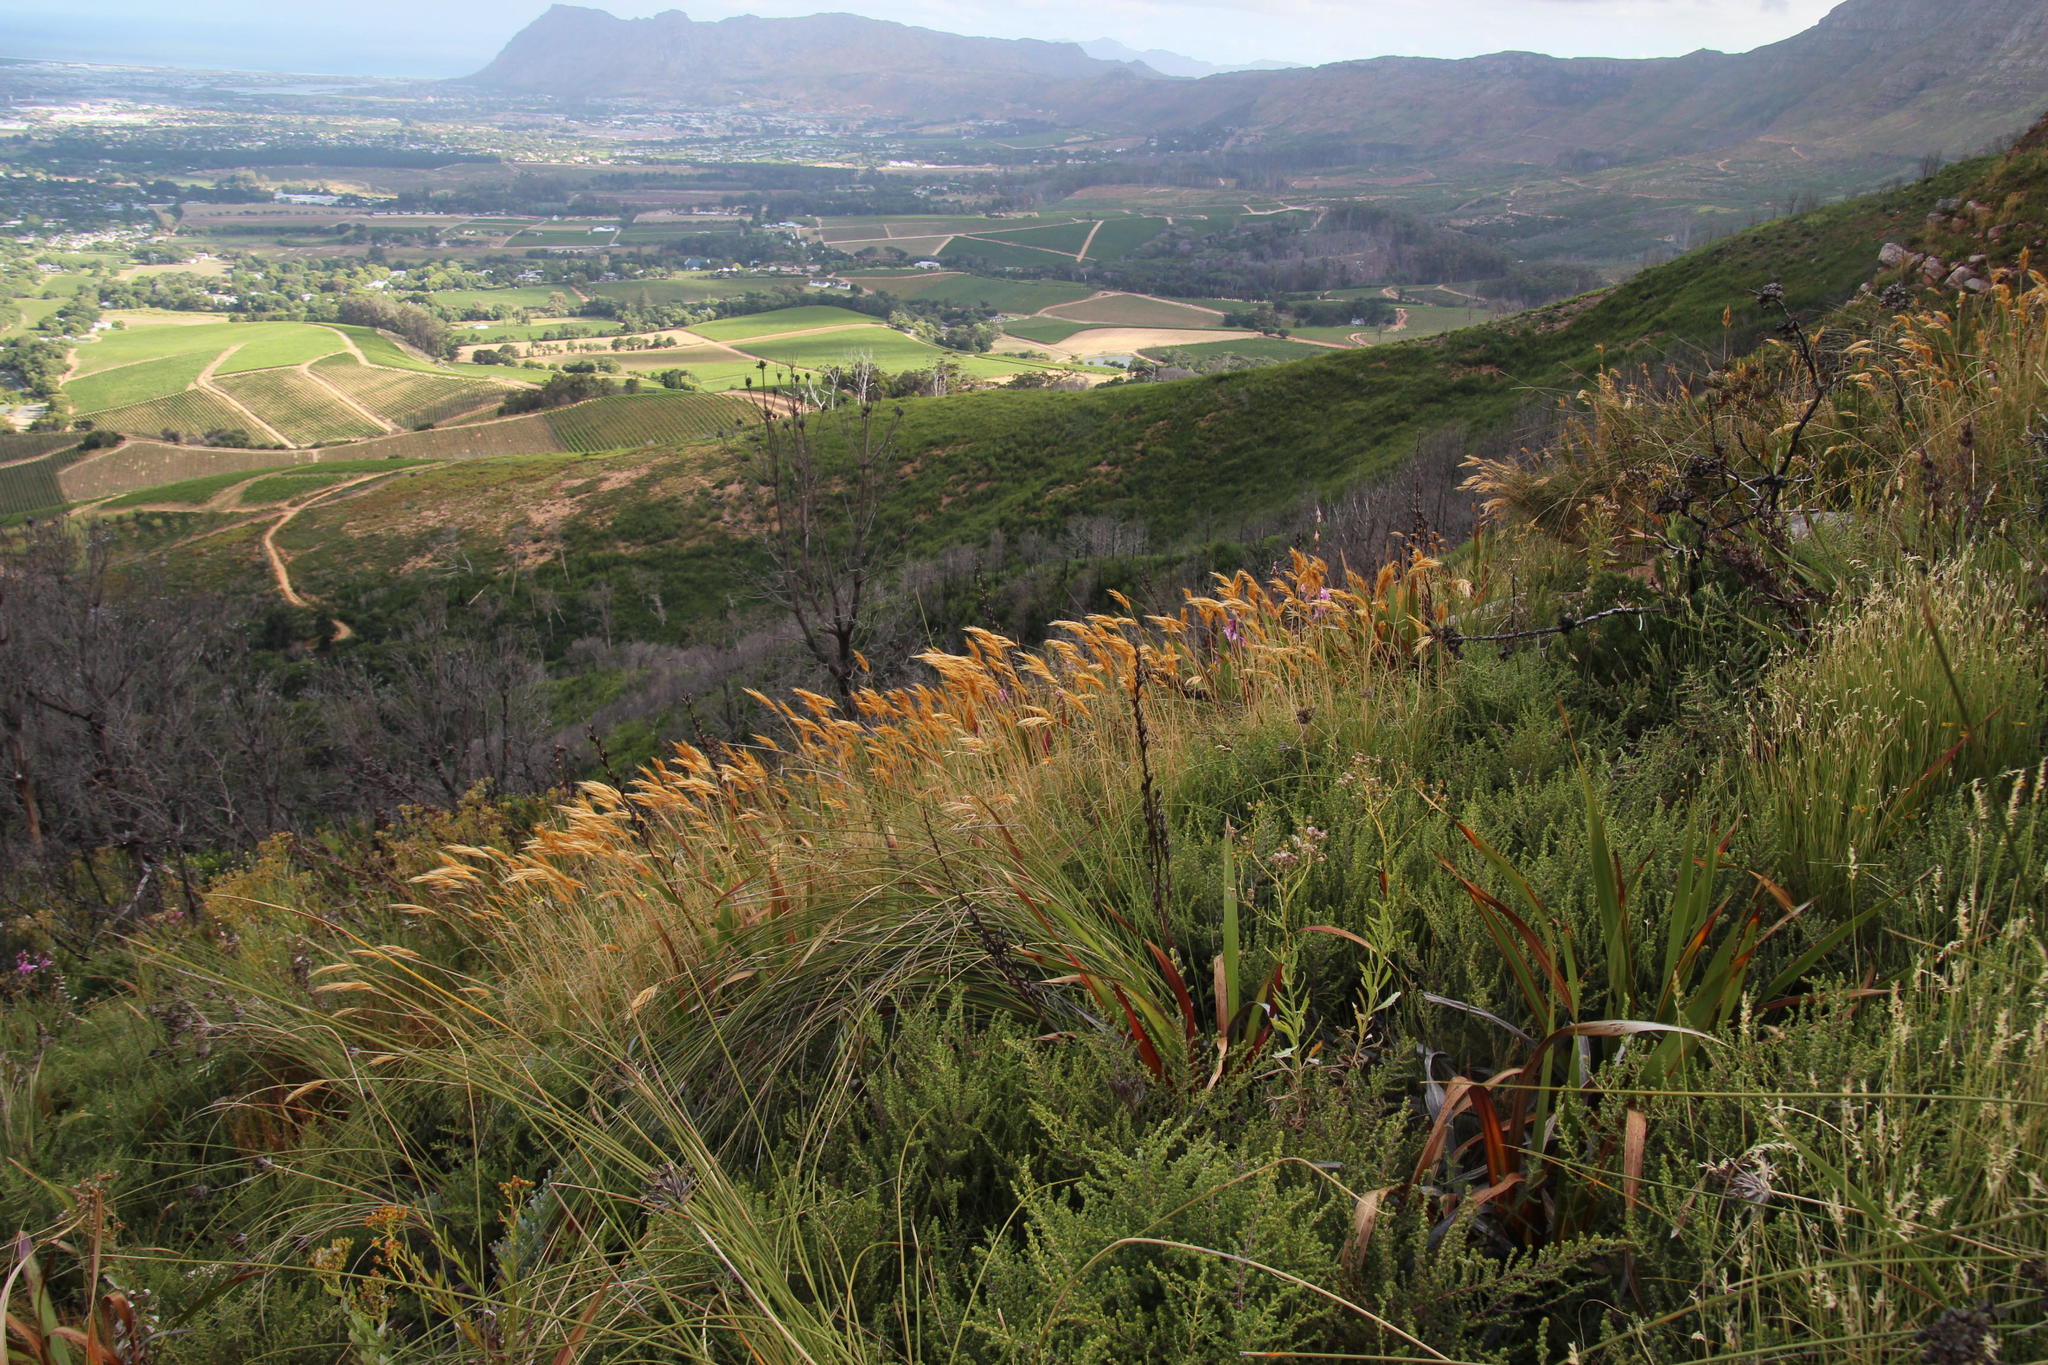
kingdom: Plantae
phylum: Tracheophyta
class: Liliopsida
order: Poales
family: Poaceae
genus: Pseudopentameris
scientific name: Pseudopentameris macrantha
